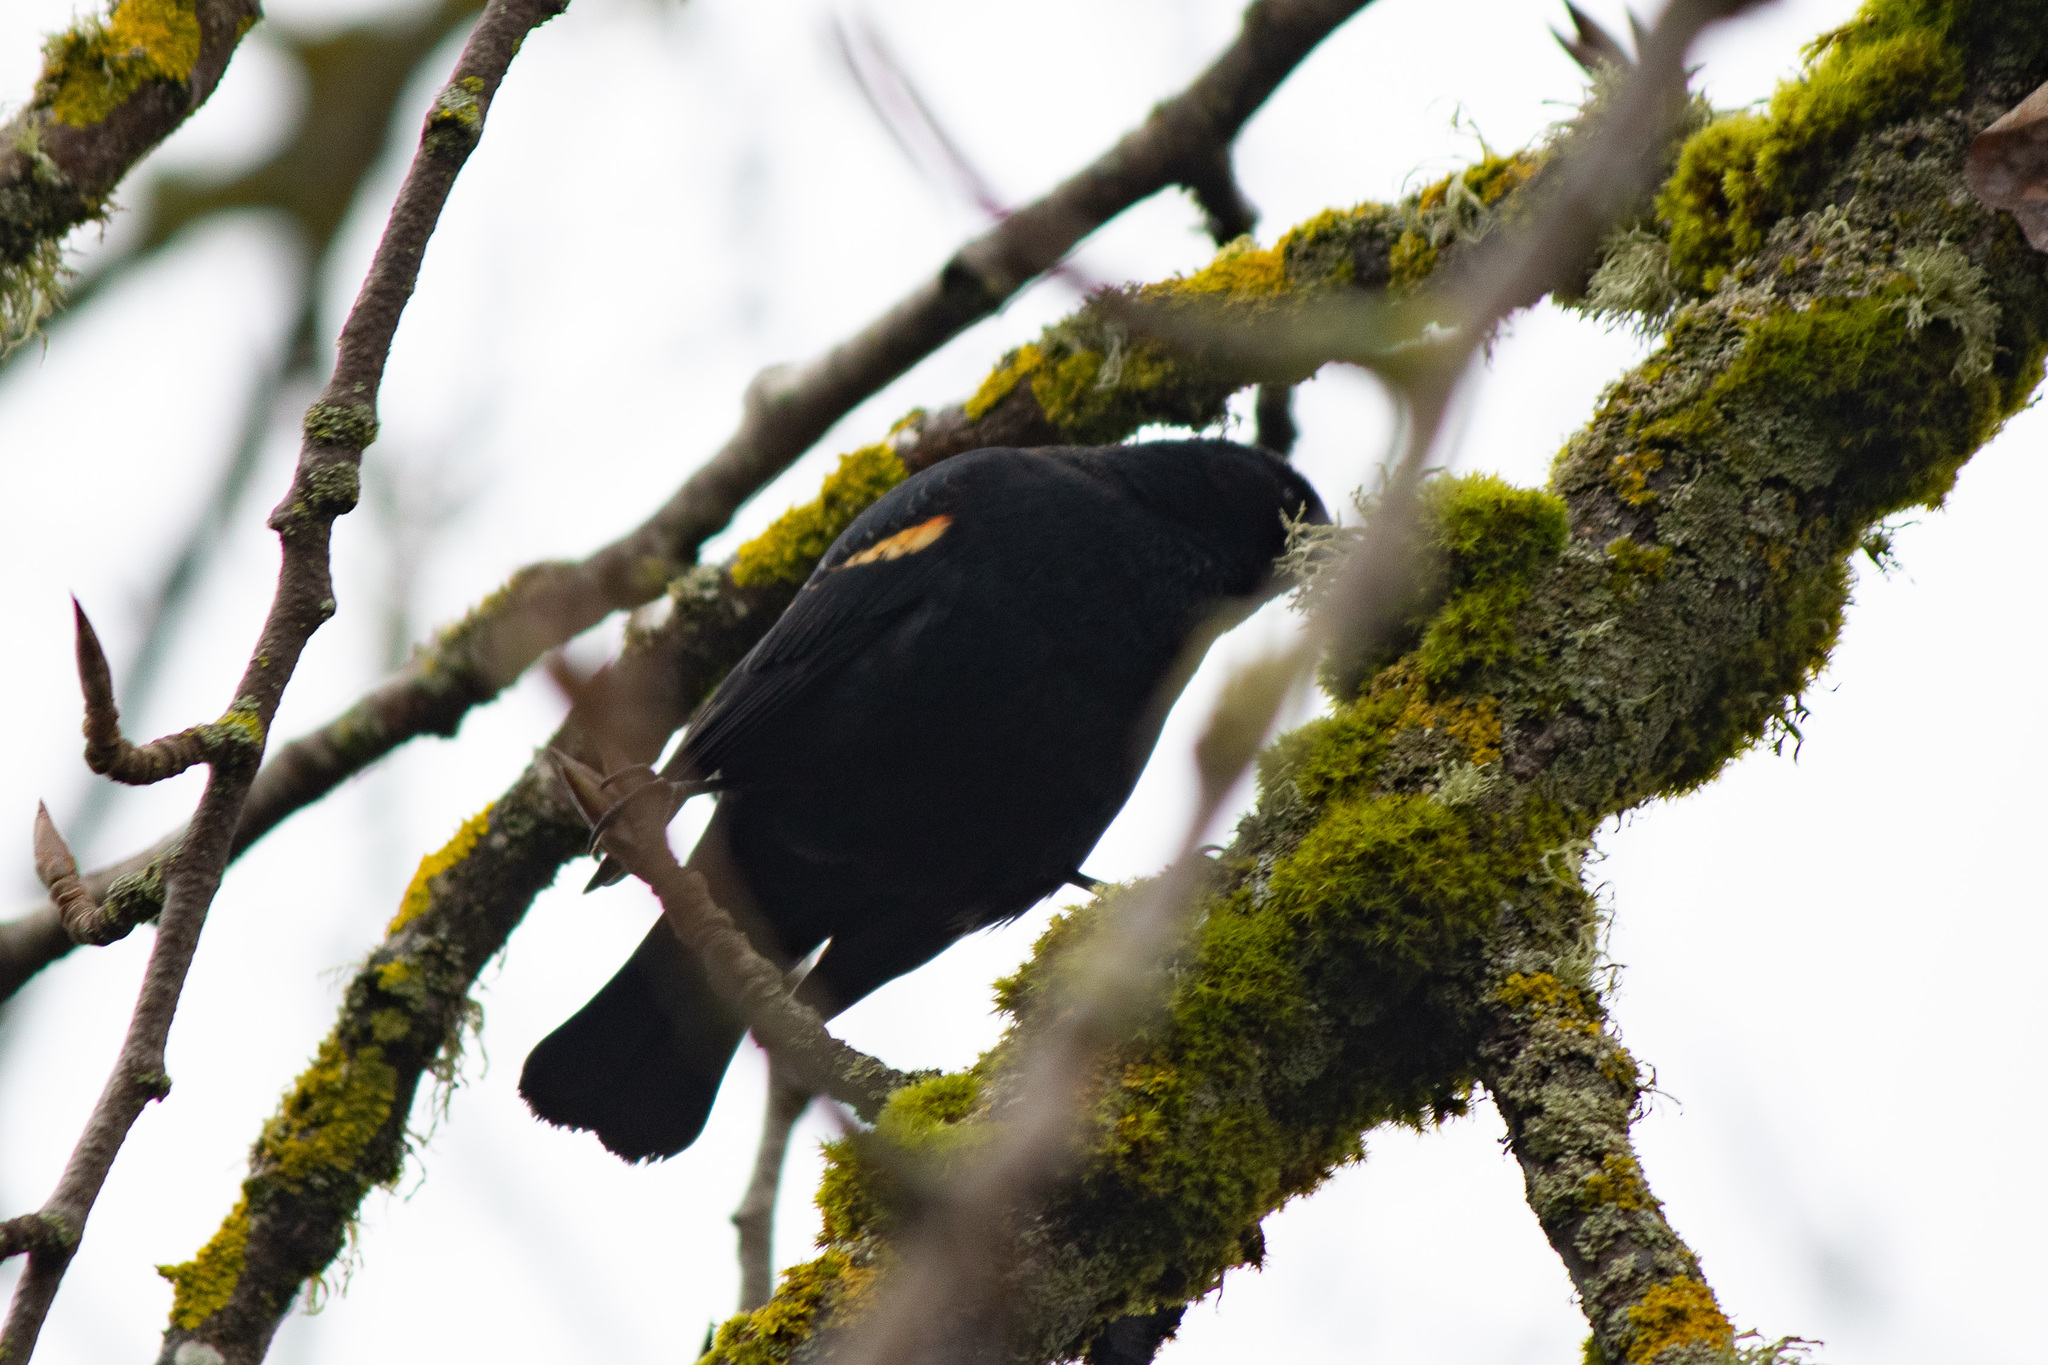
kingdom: Animalia
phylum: Chordata
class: Aves
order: Passeriformes
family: Icteridae
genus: Agelaius
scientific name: Agelaius phoeniceus
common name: Red-winged blackbird
